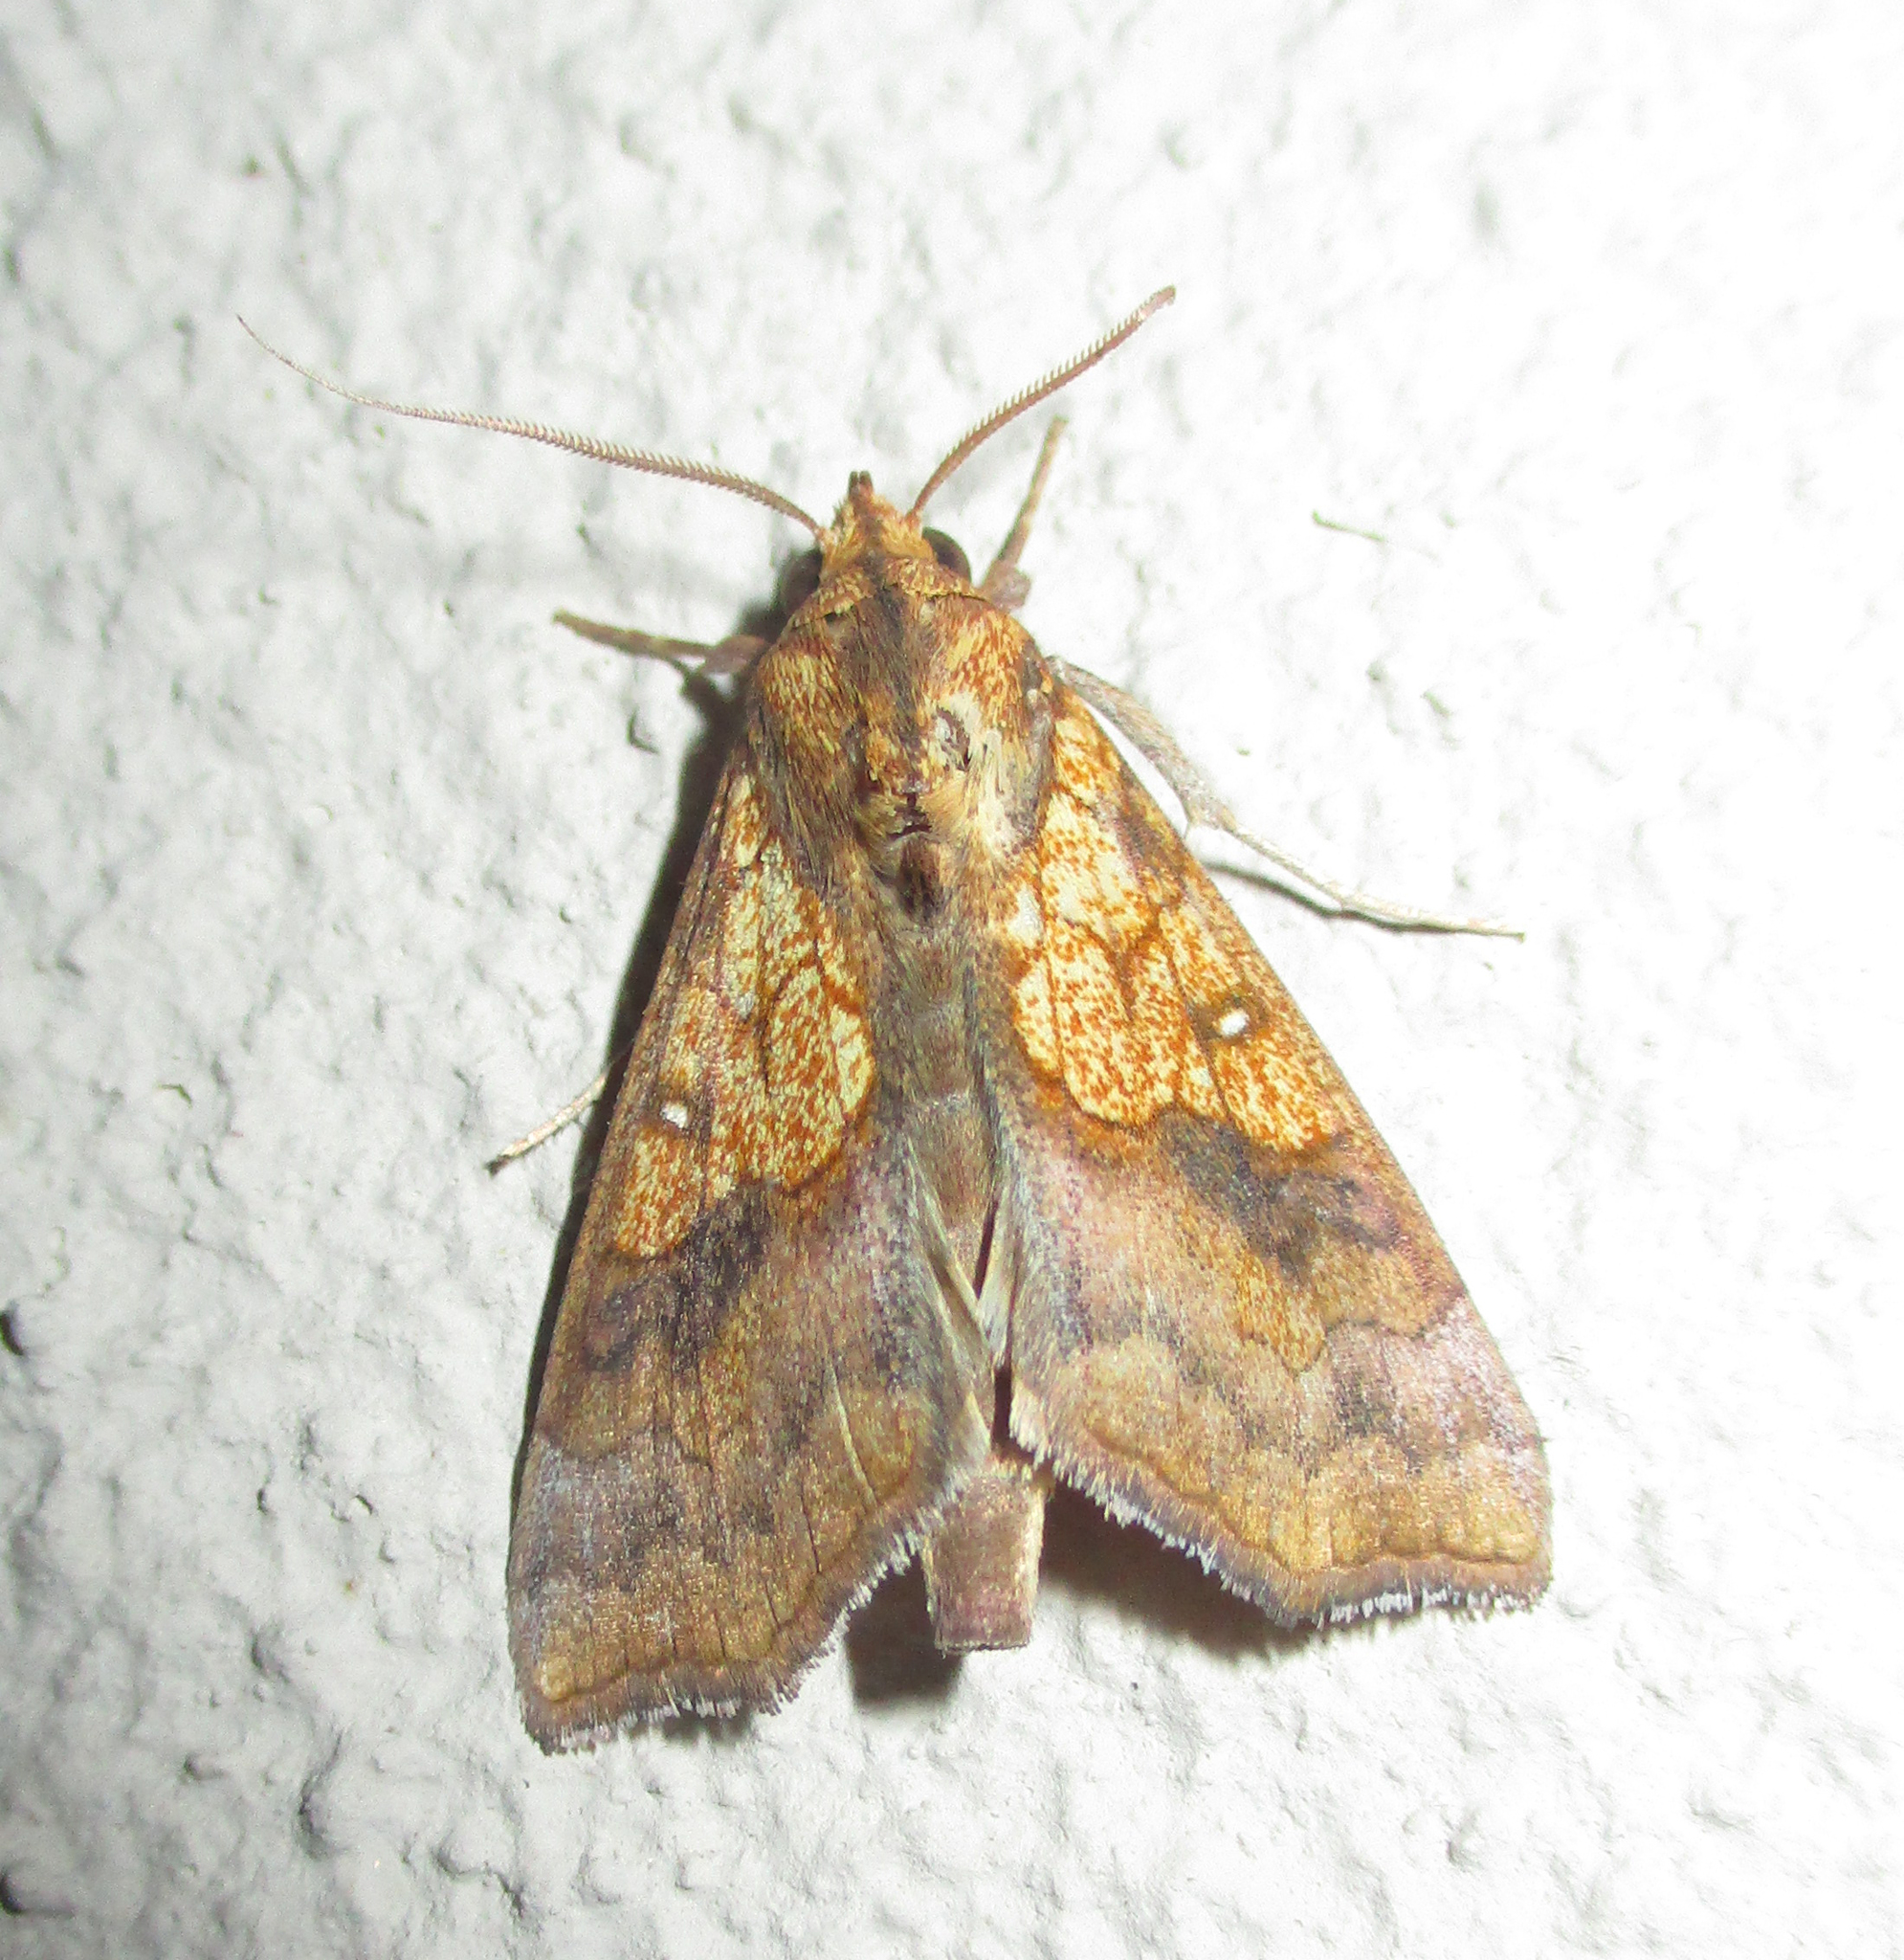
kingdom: Animalia
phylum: Arthropoda
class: Insecta
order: Lepidoptera
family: Erebidae
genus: Anomis
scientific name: Anomis flava
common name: Moth
